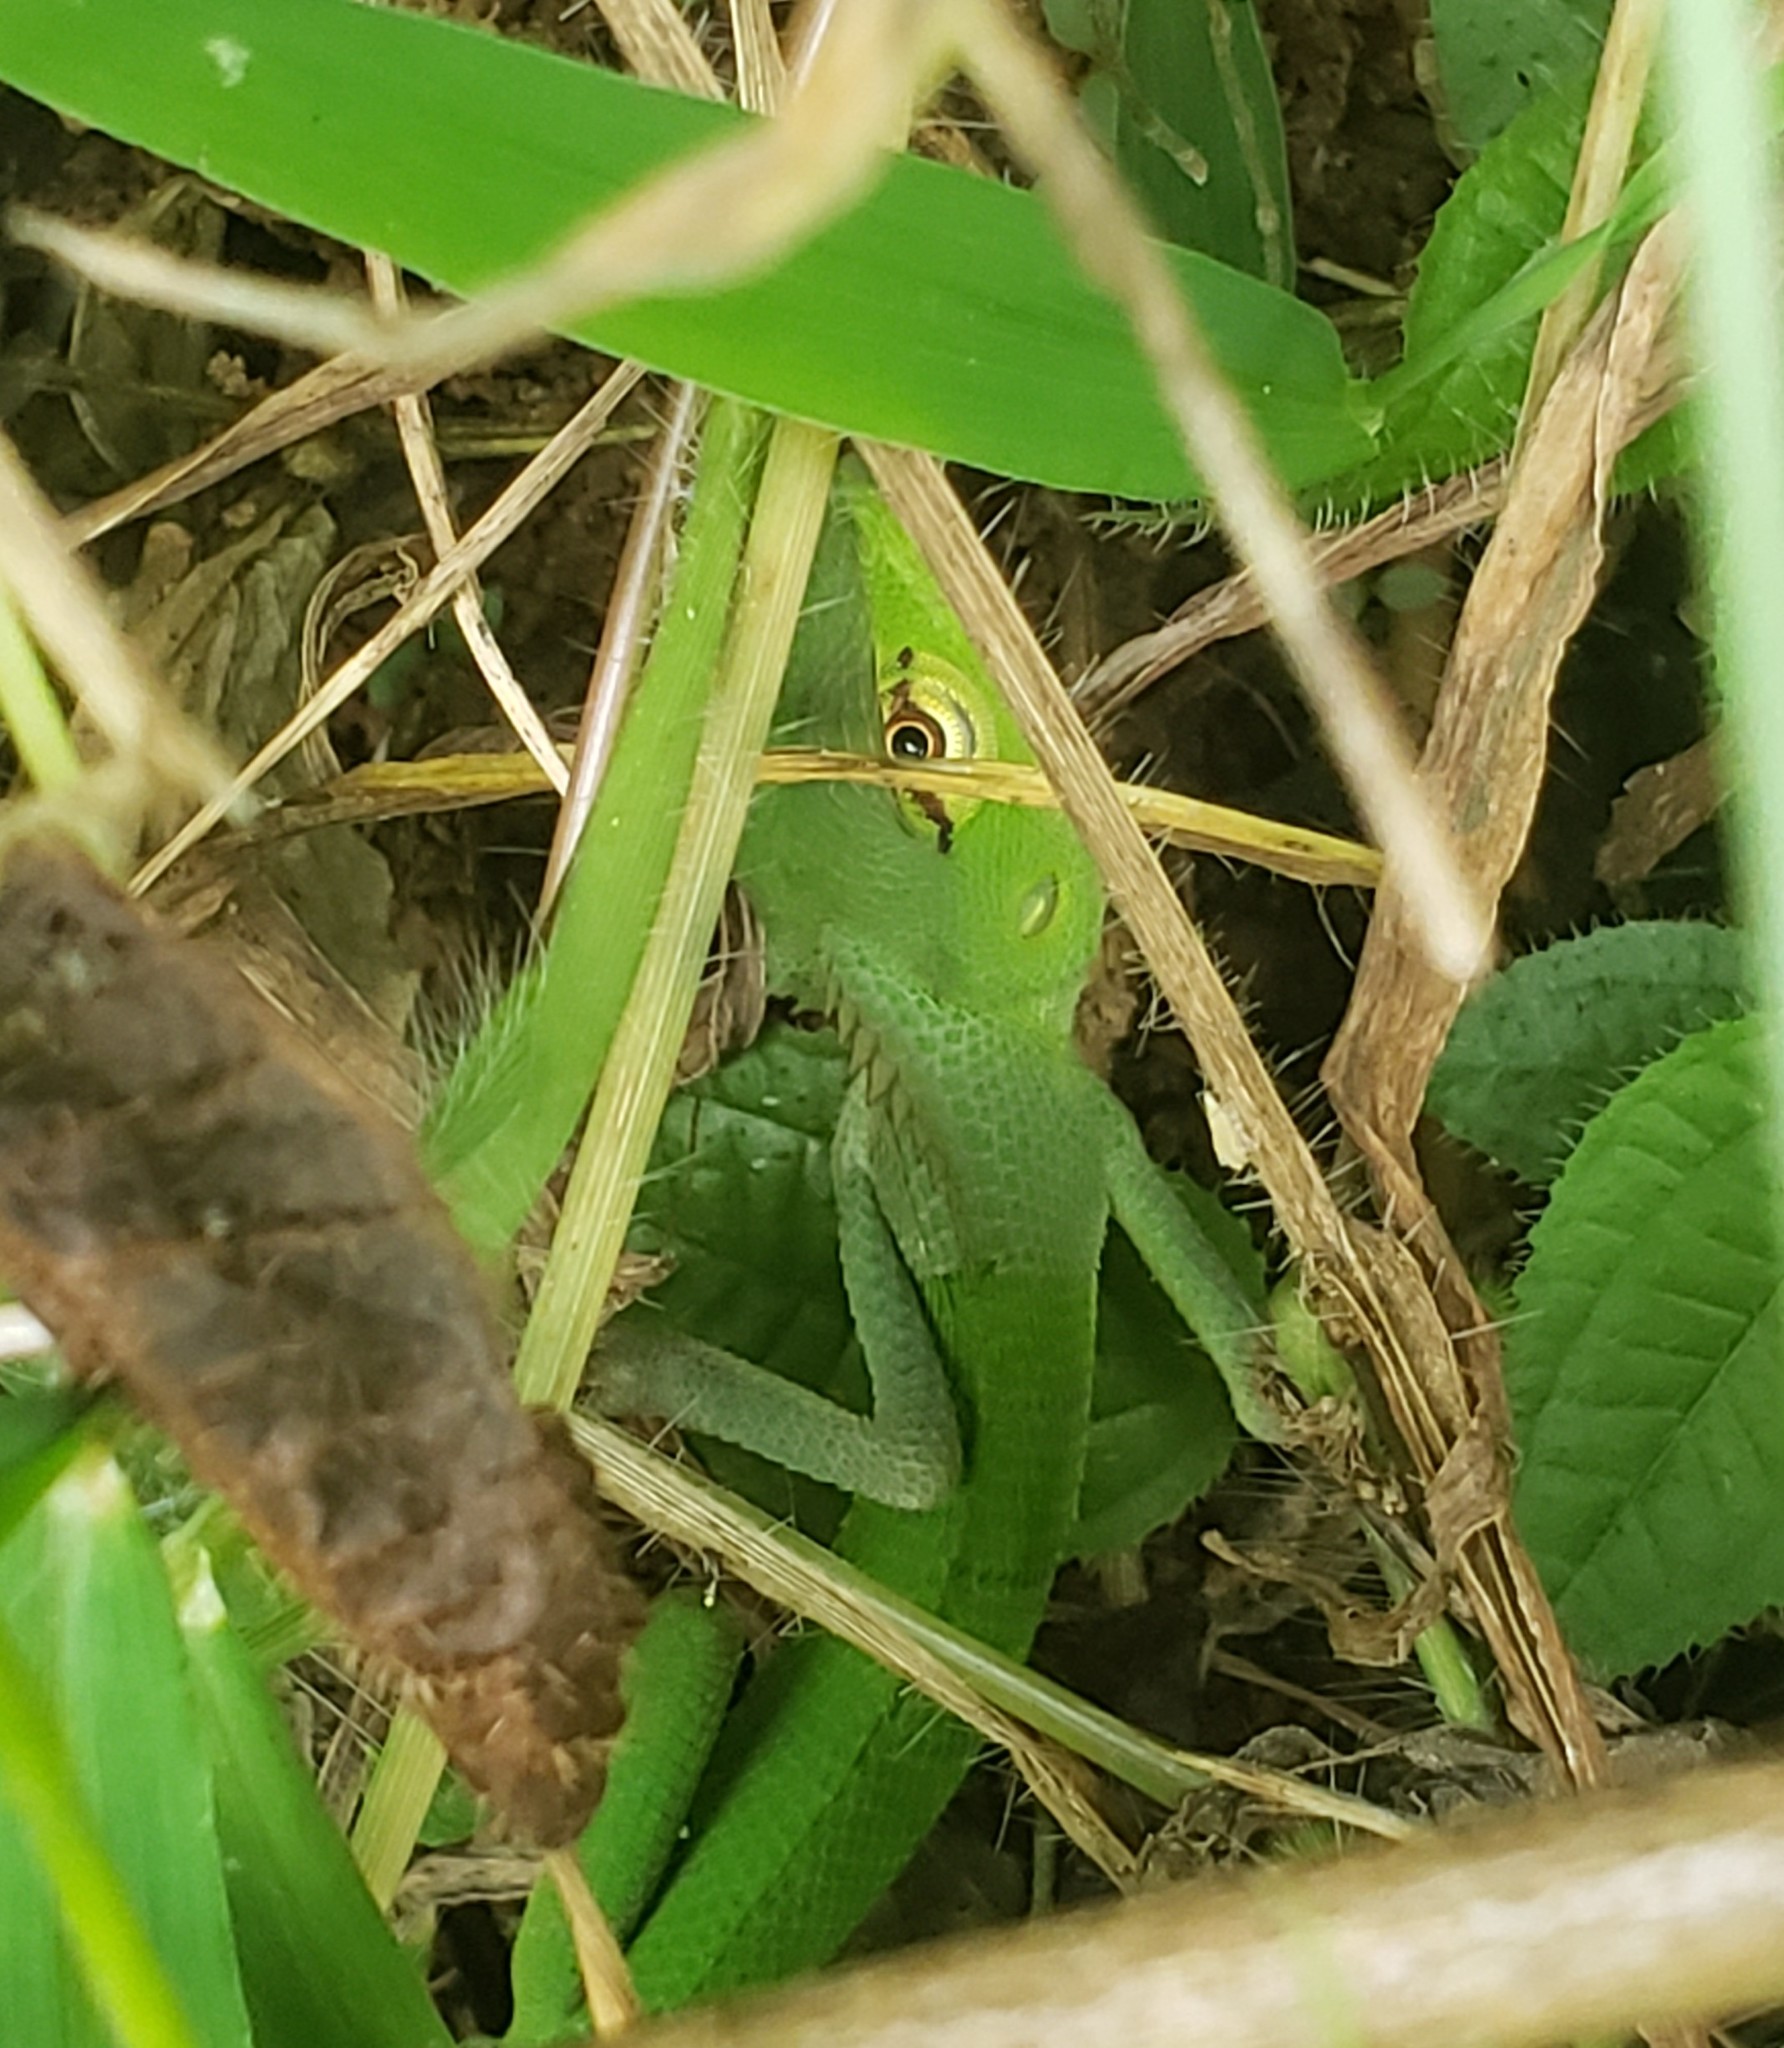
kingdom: Animalia
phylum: Chordata
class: Squamata
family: Agamidae
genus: Calotes
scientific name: Calotes calotes
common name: Common green forest lizard
